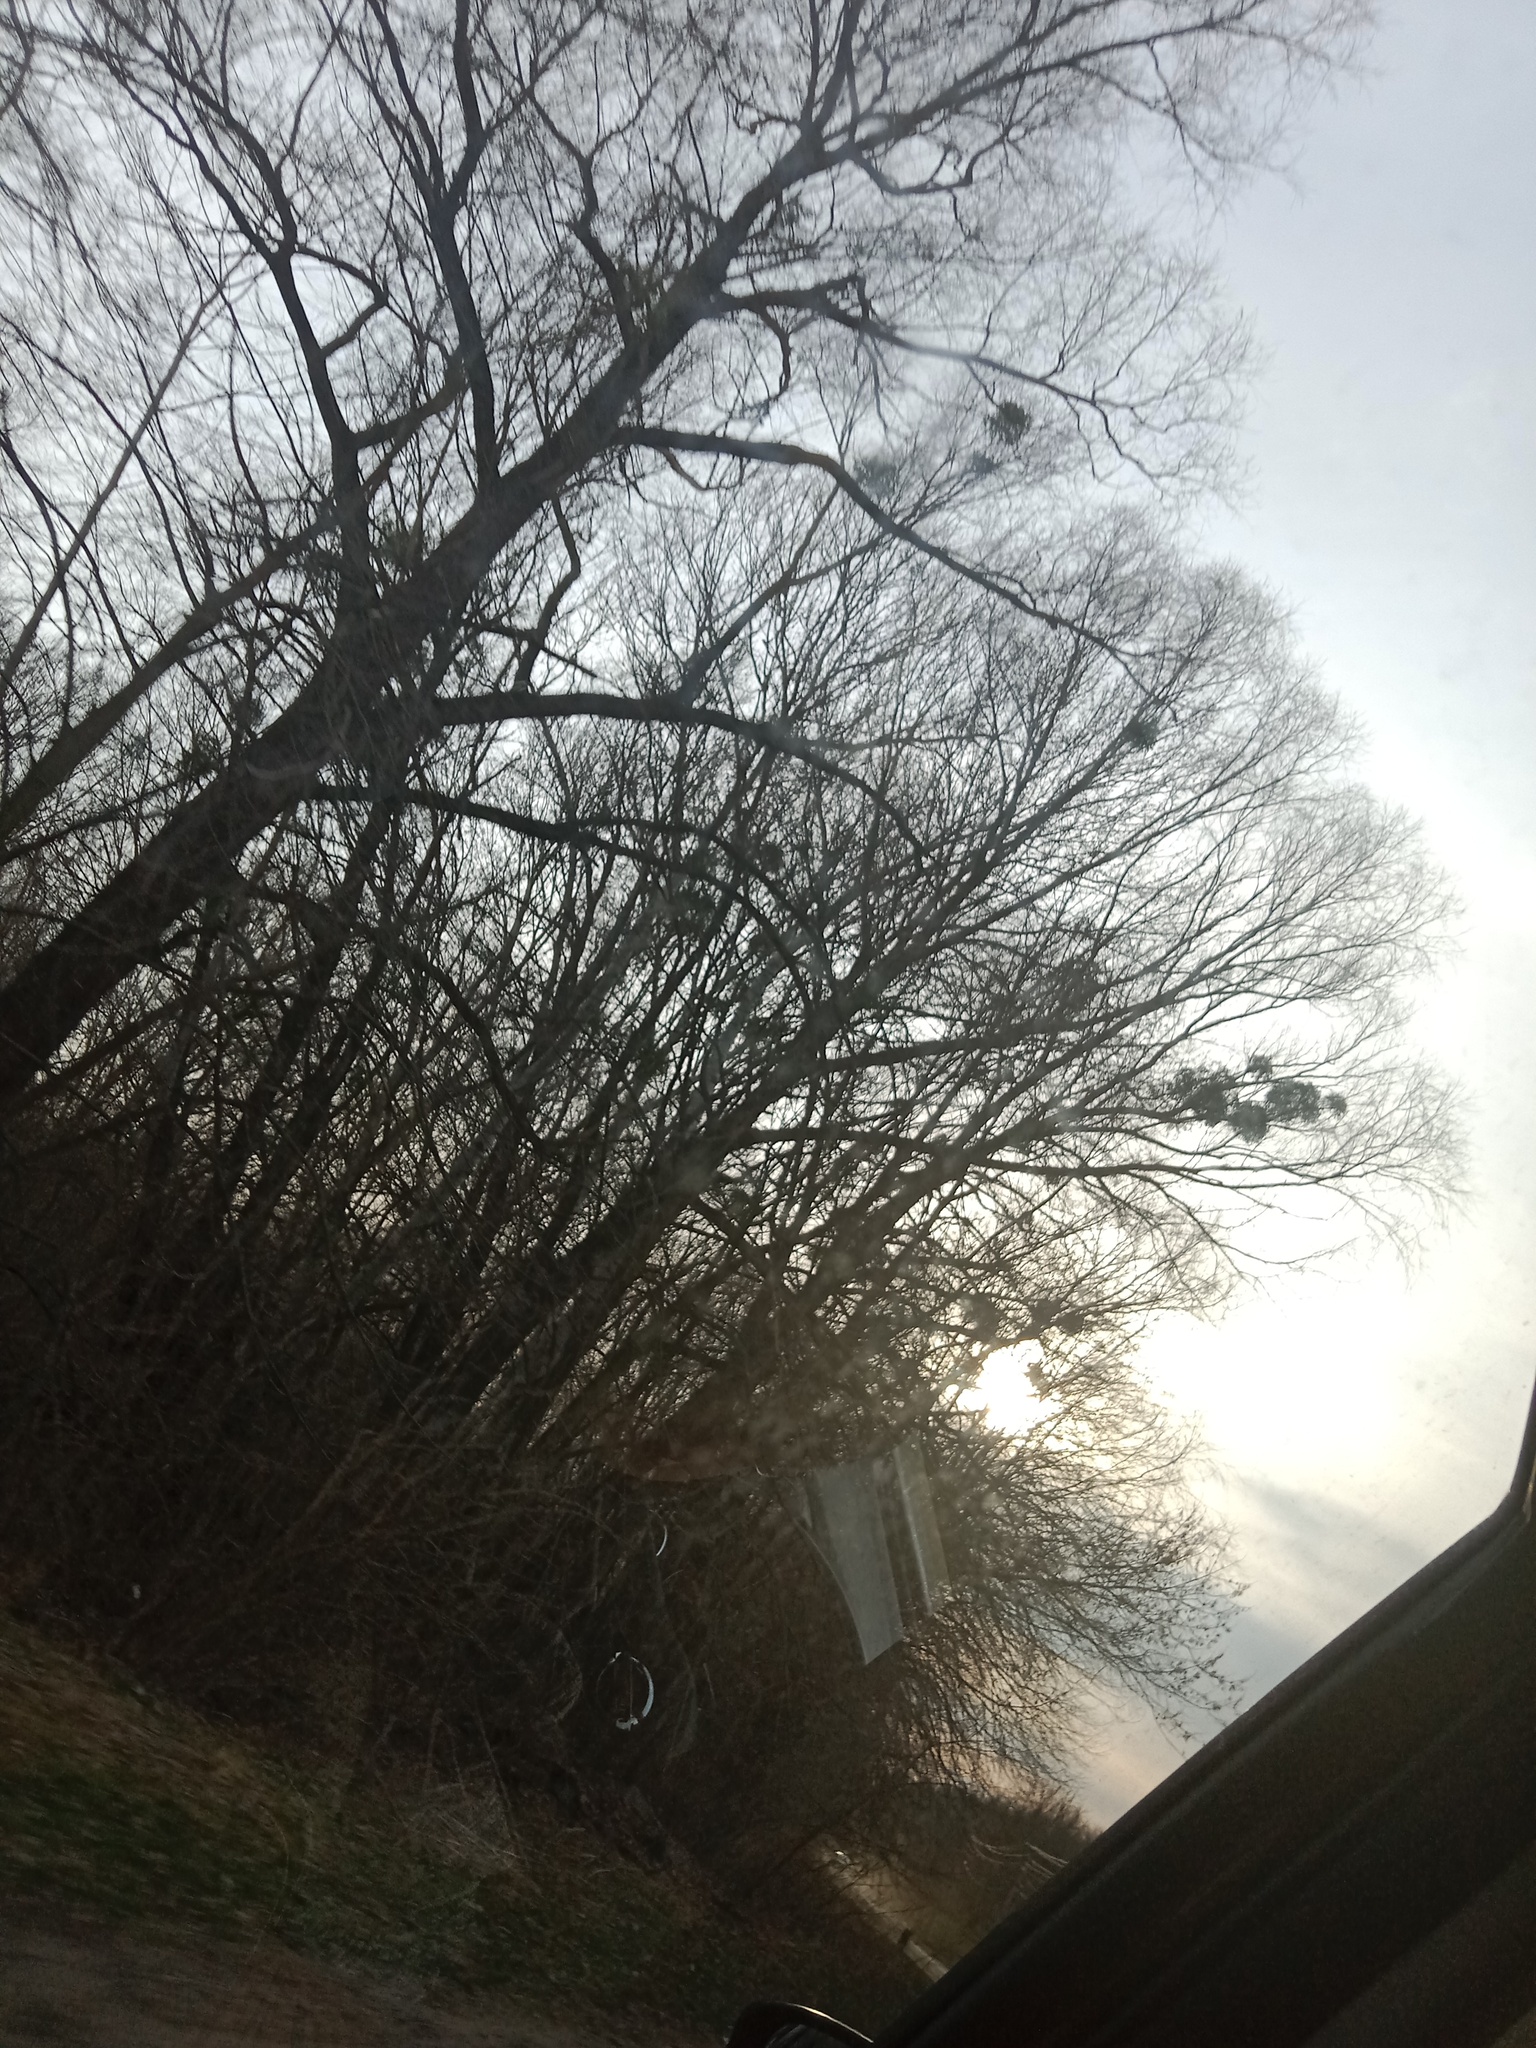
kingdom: Plantae
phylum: Tracheophyta
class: Magnoliopsida
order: Santalales
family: Viscaceae
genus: Viscum
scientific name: Viscum album
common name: Mistletoe
